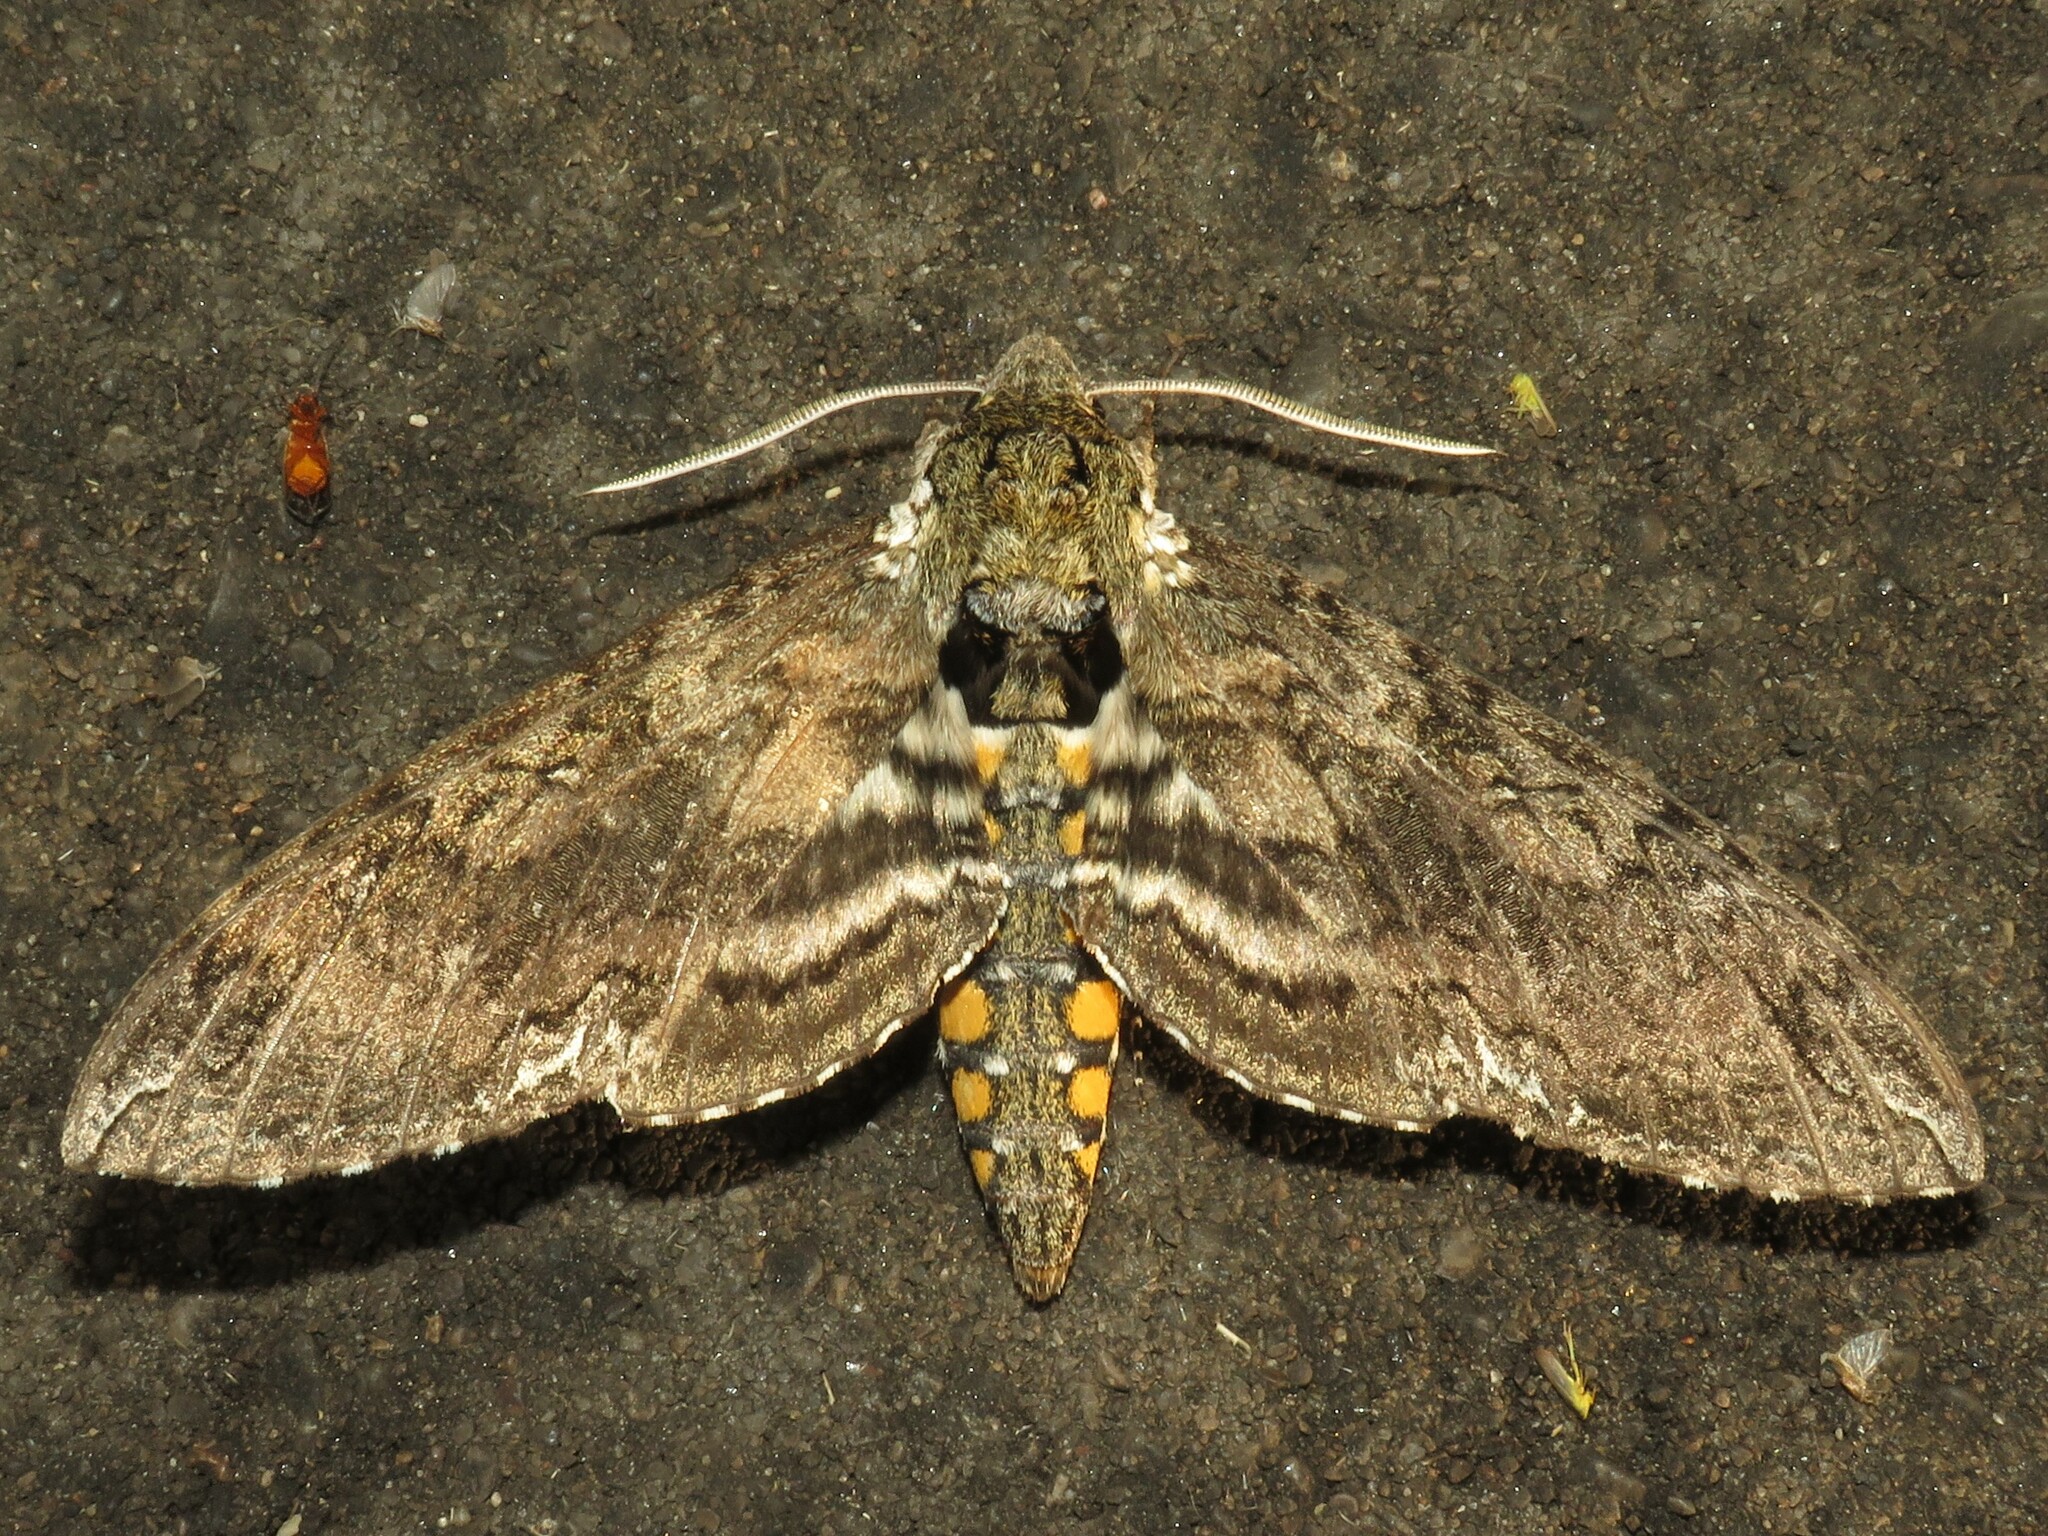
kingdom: Animalia
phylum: Arthropoda
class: Insecta
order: Lepidoptera
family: Sphingidae
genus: Manduca
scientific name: Manduca sexta
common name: Carolina sphinx
